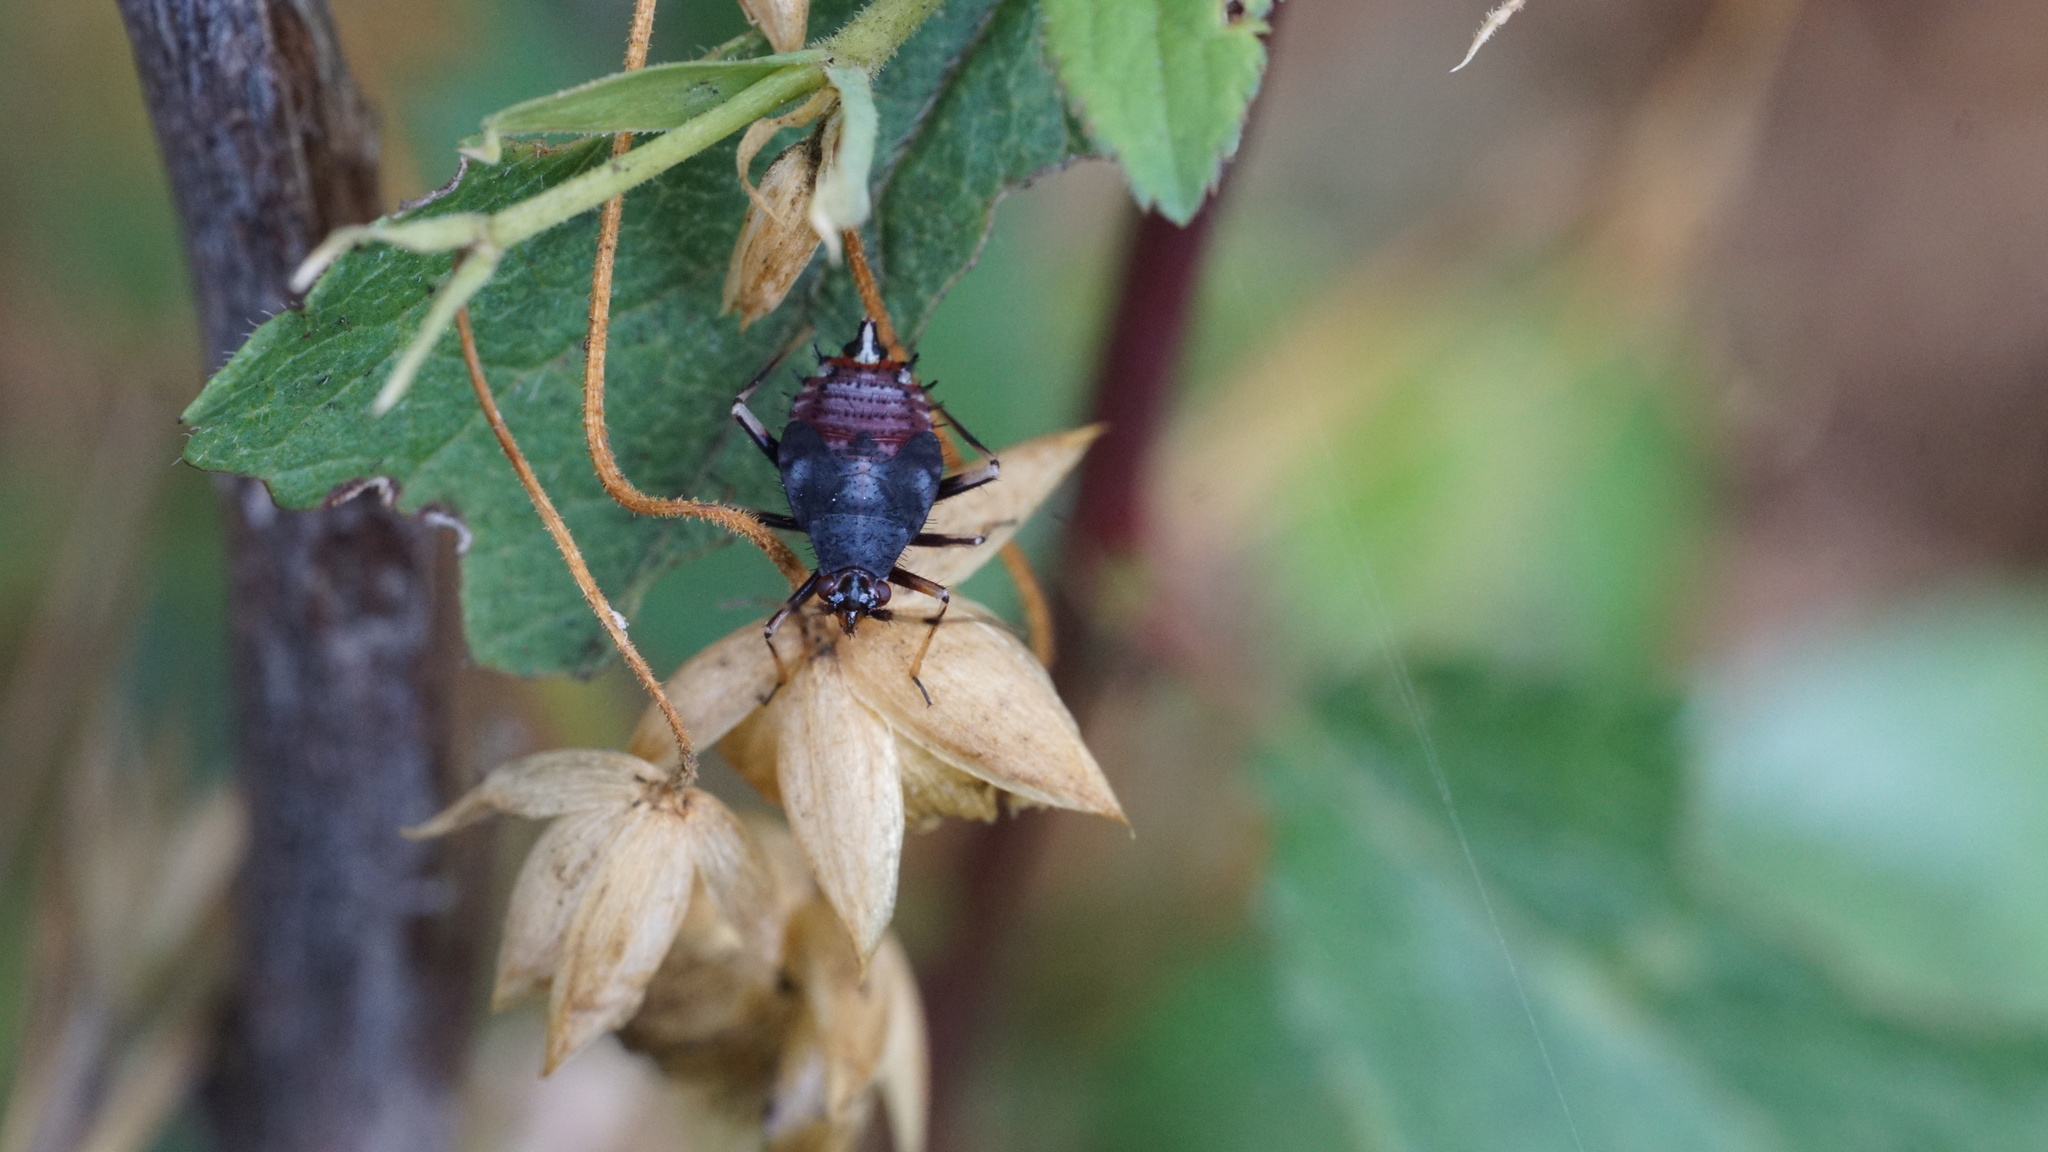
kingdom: Animalia
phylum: Arthropoda
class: Insecta
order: Hemiptera
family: Miridae
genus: Deraeocoris
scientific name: Deraeocoris ruber
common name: Plant bug
